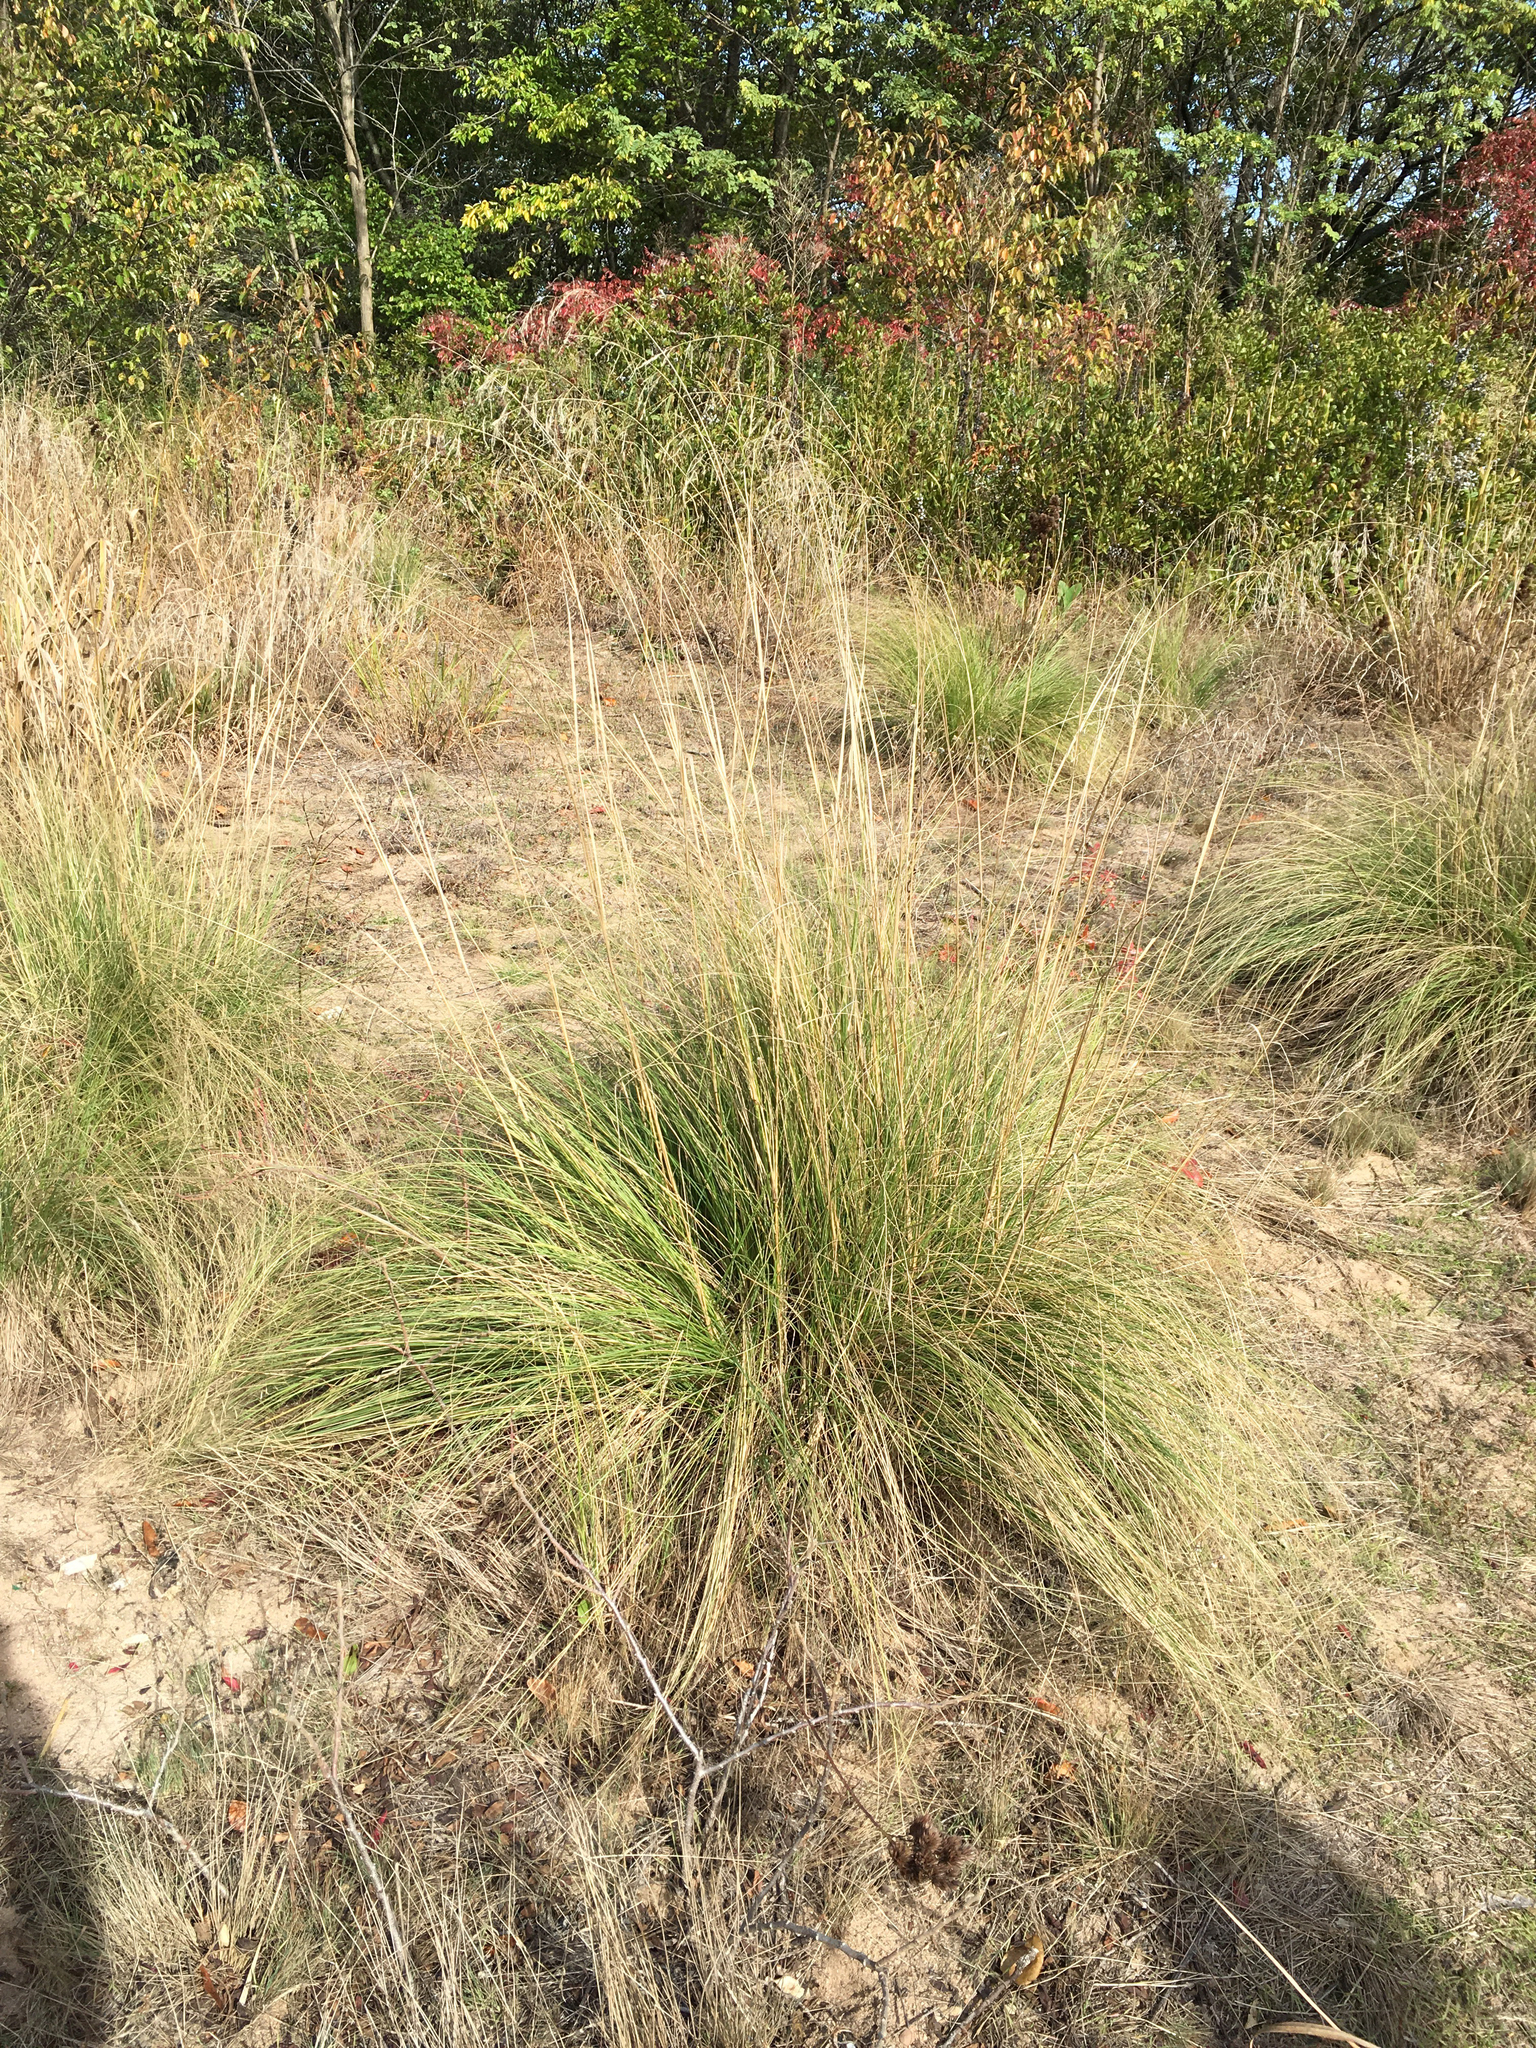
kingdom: Plantae
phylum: Tracheophyta
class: Liliopsida
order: Poales
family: Poaceae
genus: Eragrostis
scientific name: Eragrostis curvula
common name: African love-grass
